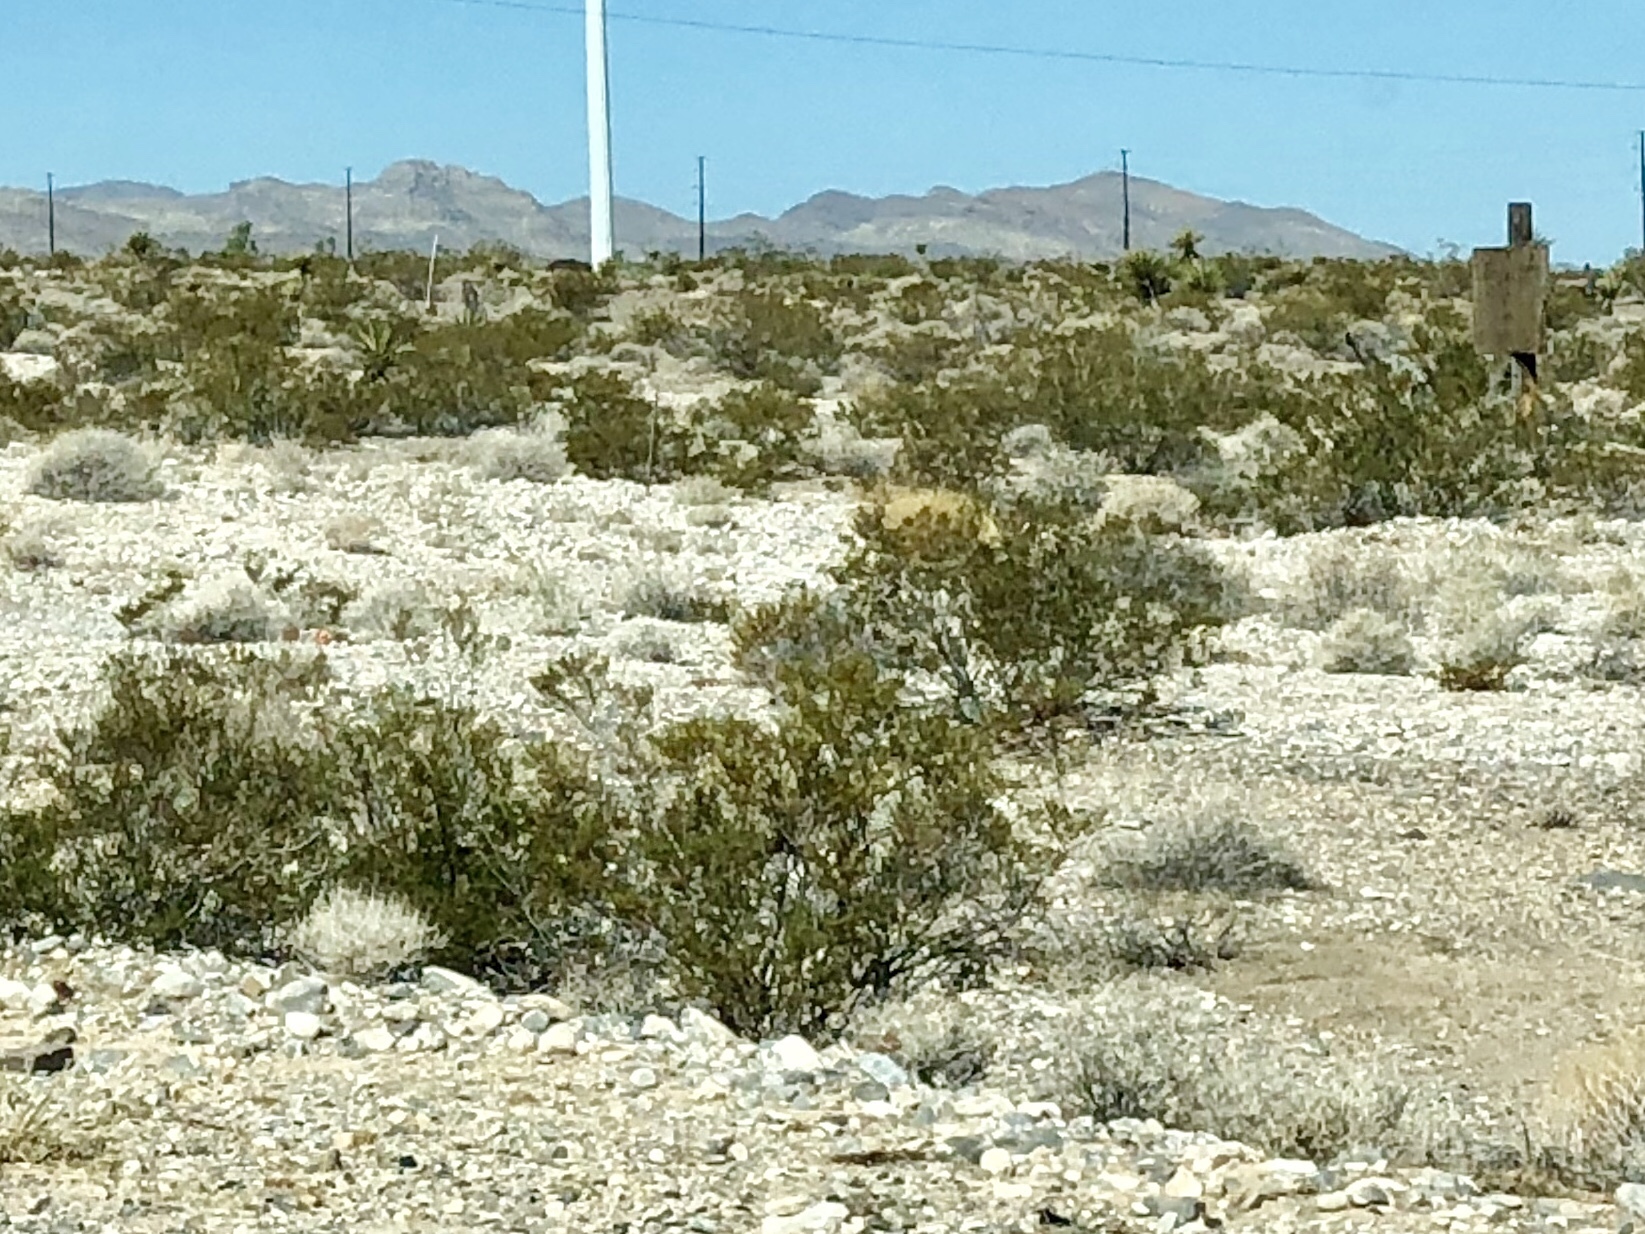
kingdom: Plantae
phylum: Tracheophyta
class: Magnoliopsida
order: Zygophyllales
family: Zygophyllaceae
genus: Larrea
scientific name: Larrea tridentata
